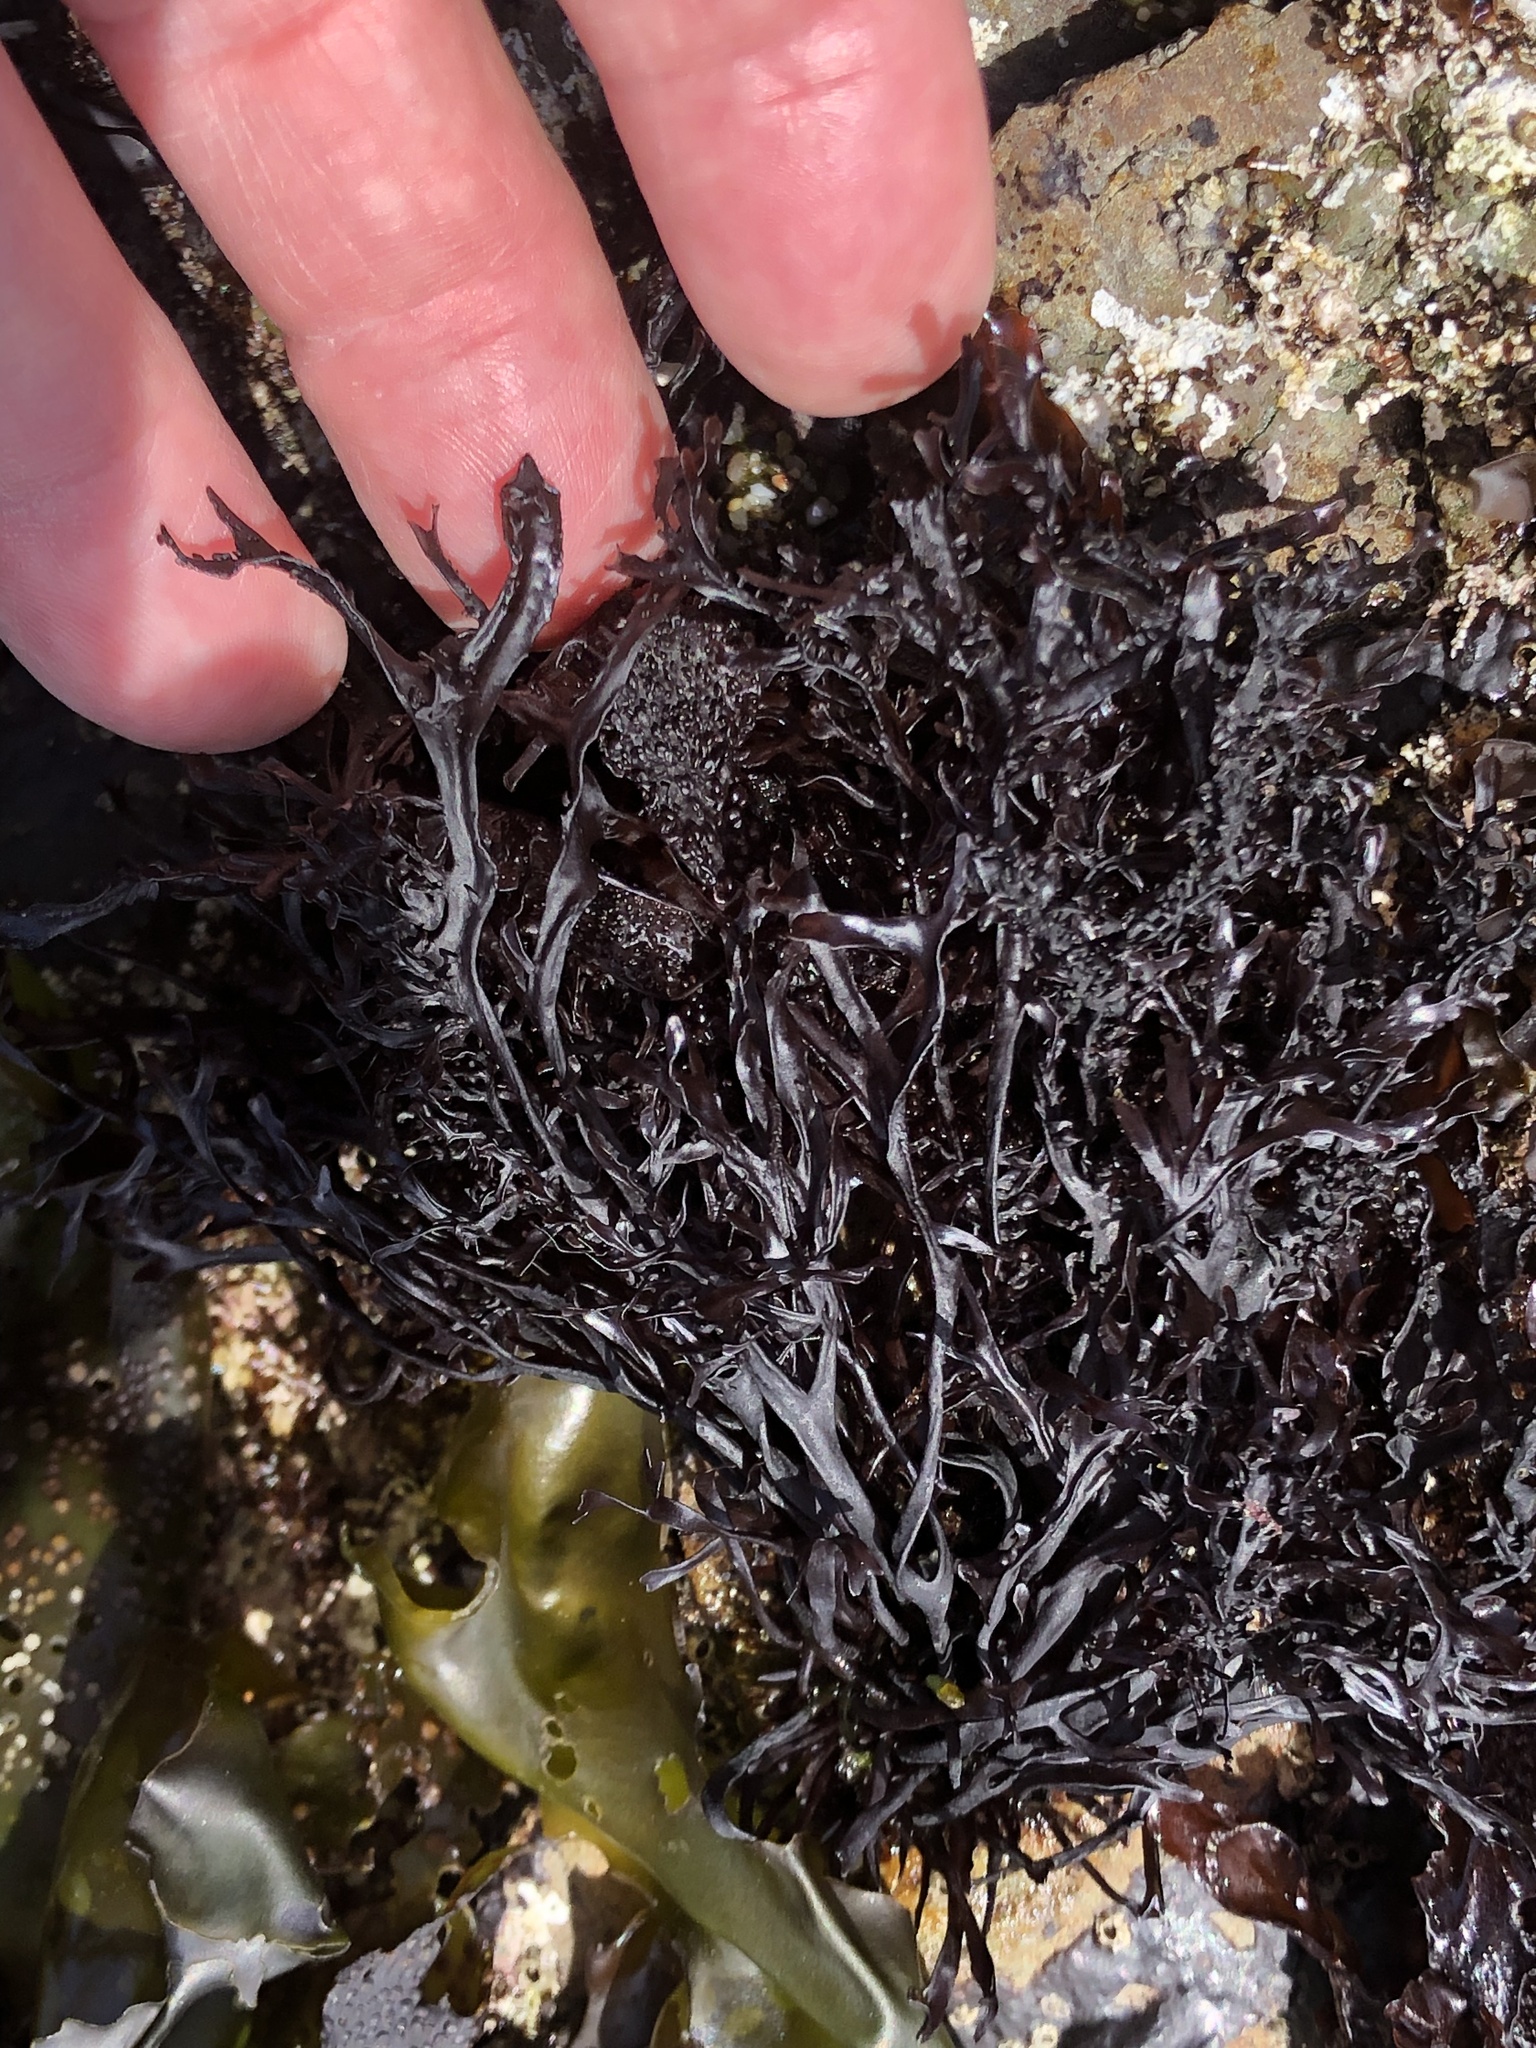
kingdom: Plantae
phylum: Rhodophyta
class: Florideophyceae
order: Gigartinales
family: Phyllophoraceae
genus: Mastocarpus
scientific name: Mastocarpus jardinii
